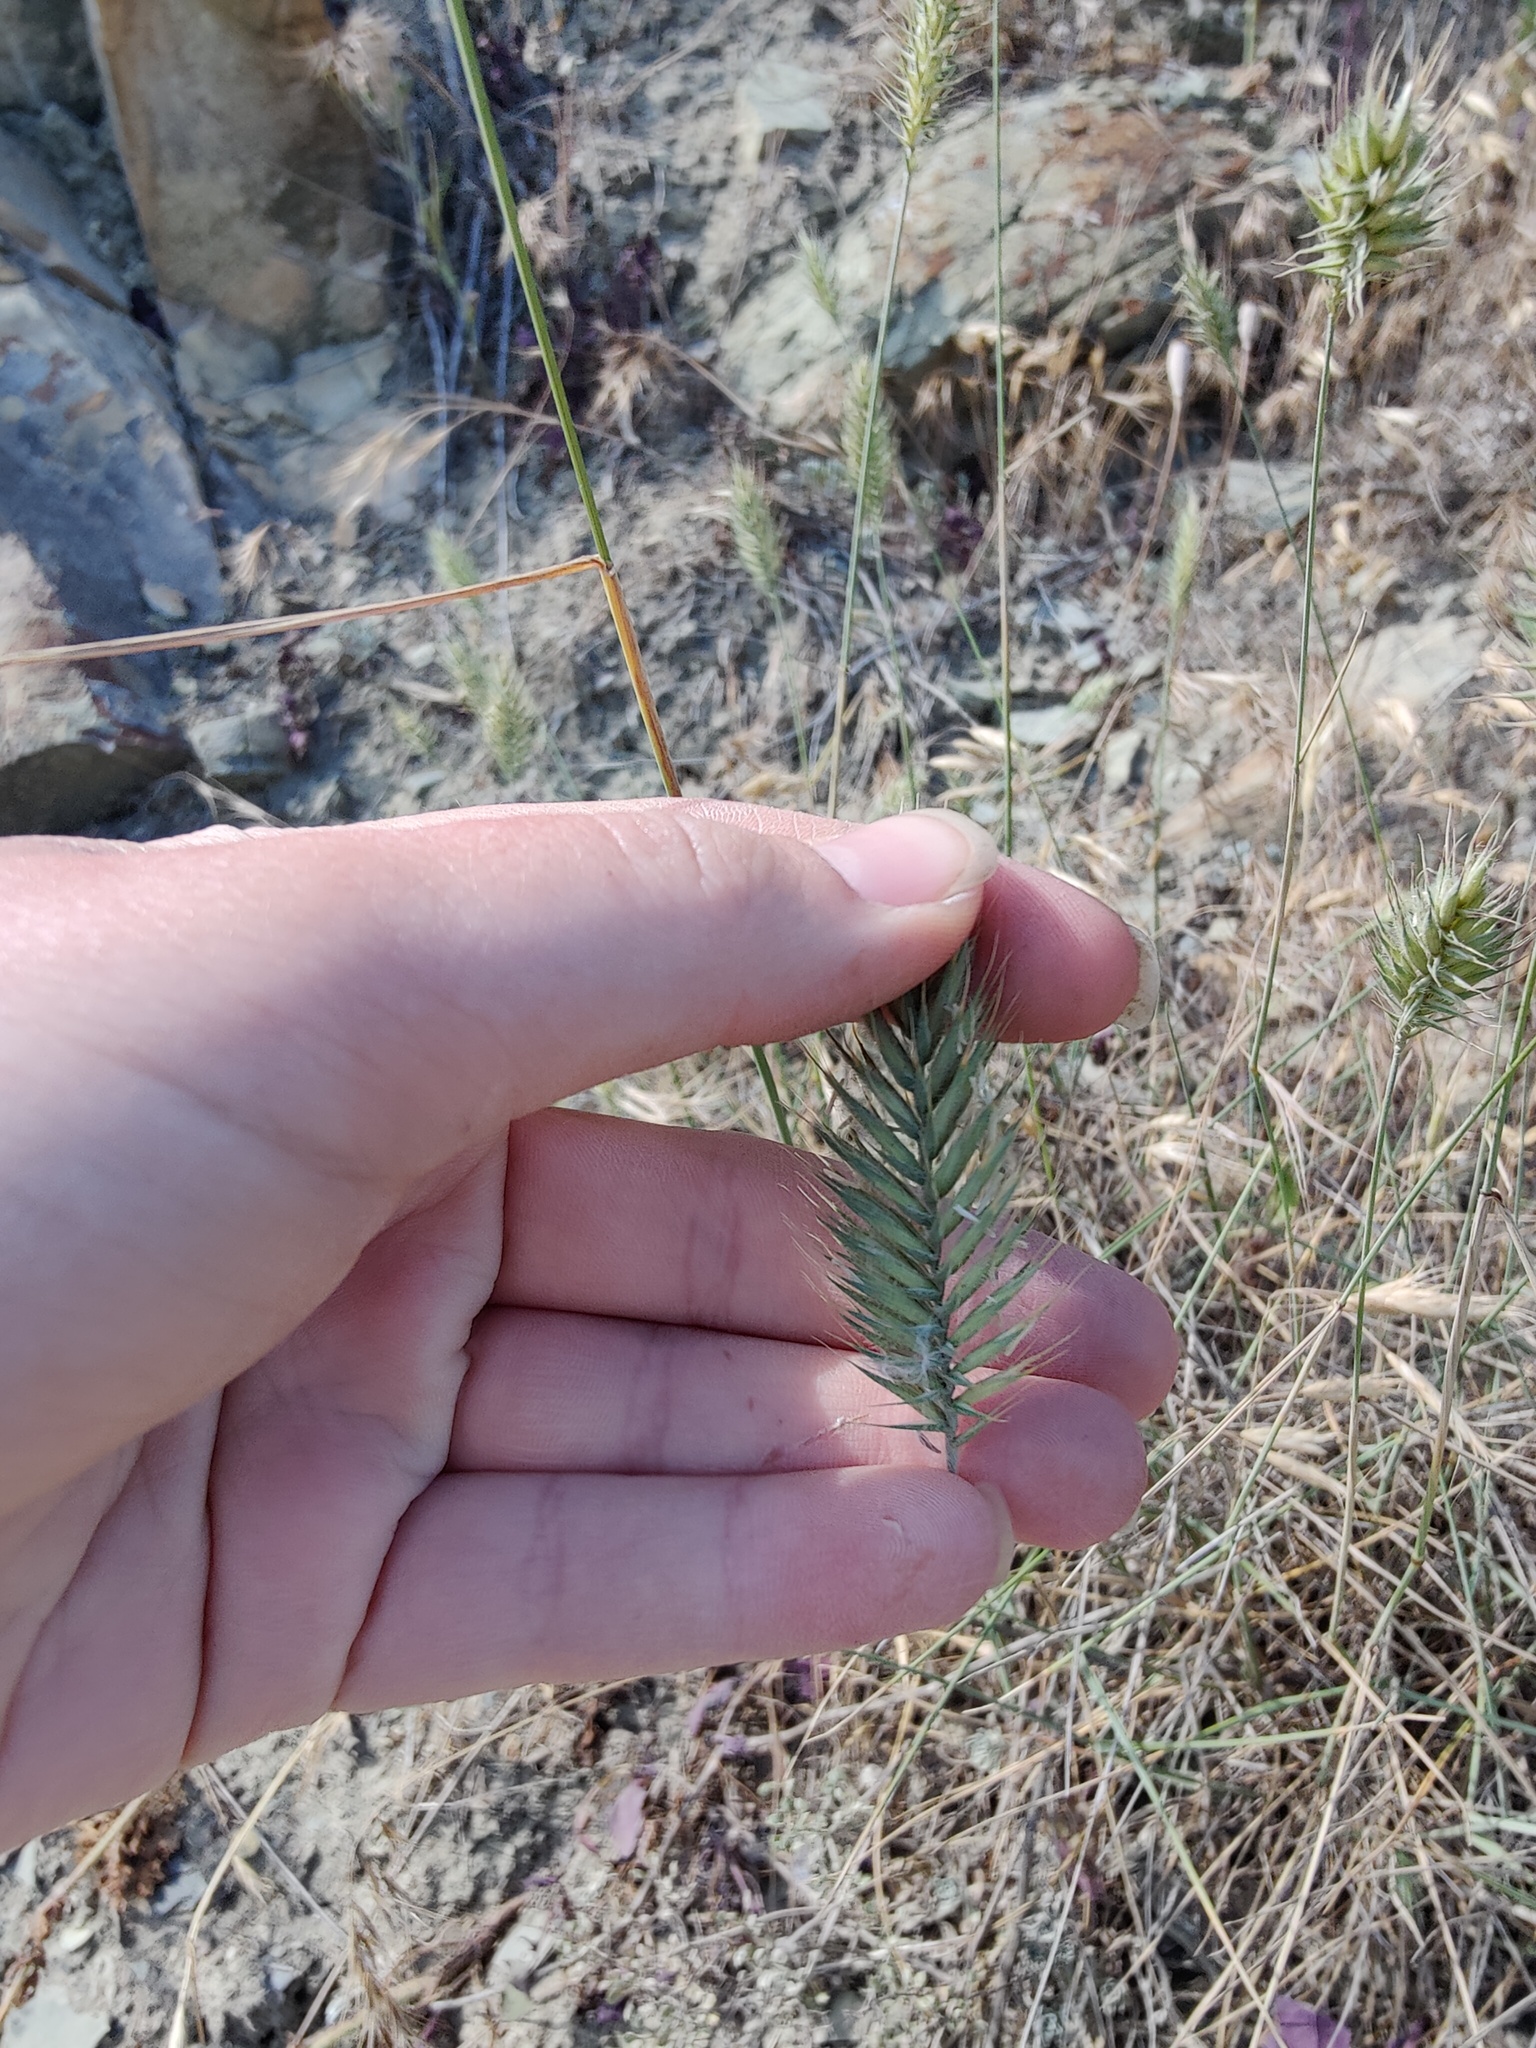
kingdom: Plantae
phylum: Tracheophyta
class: Liliopsida
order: Poales
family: Poaceae
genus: Agropyron
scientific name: Agropyron cristatum
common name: Crested wheatgrass
